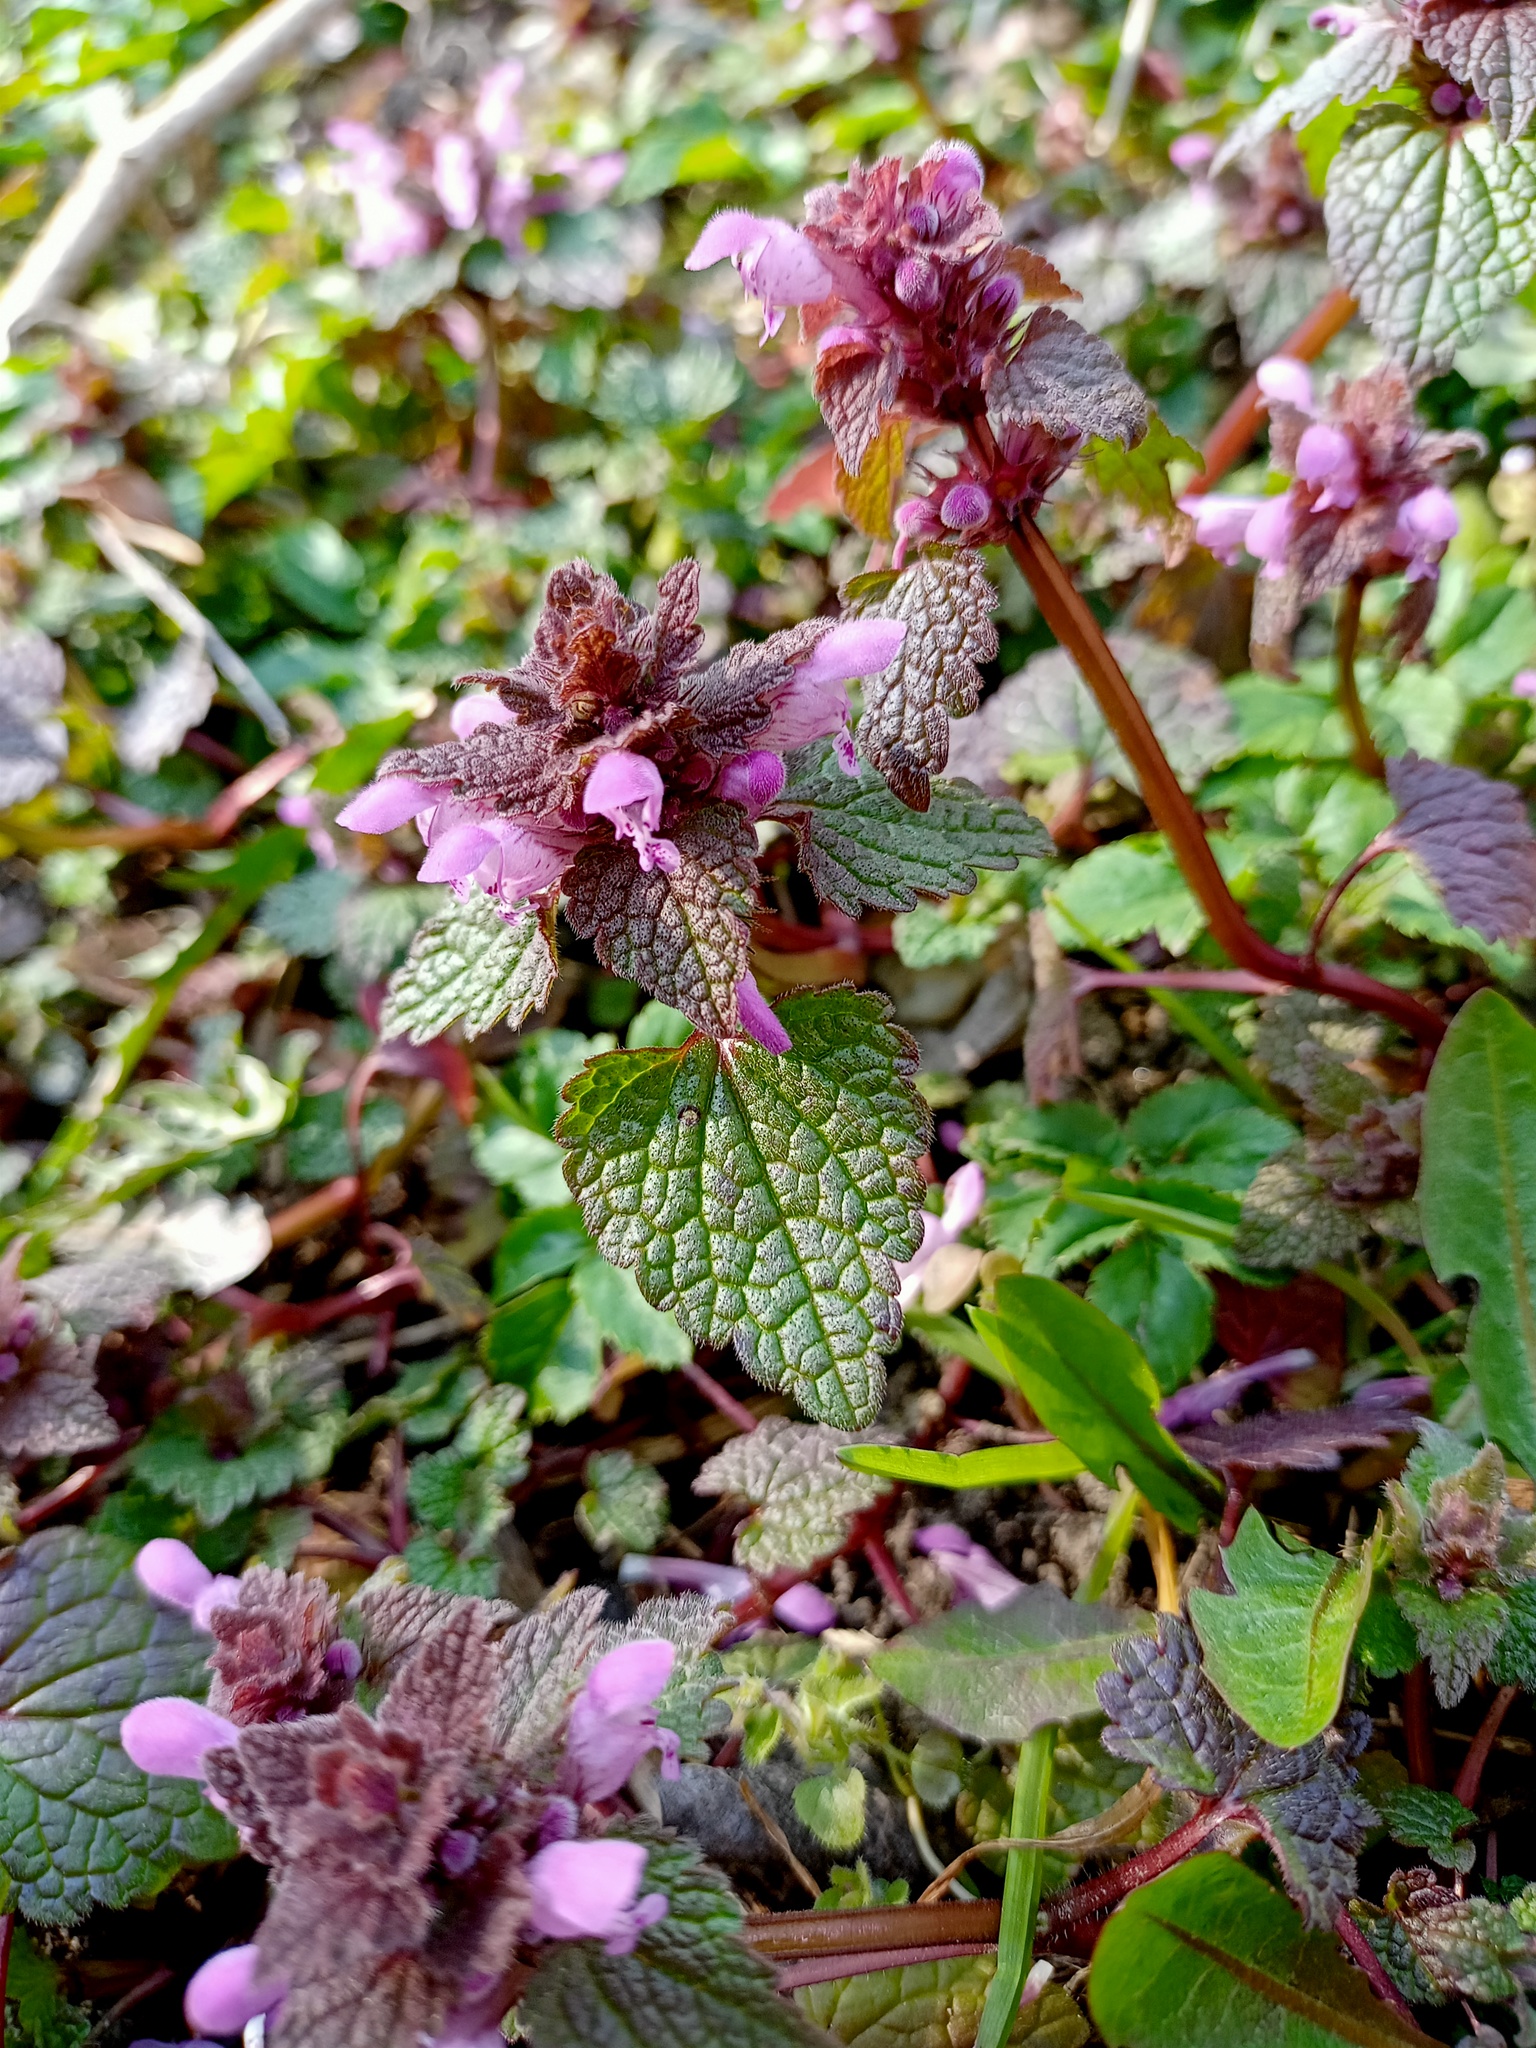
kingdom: Plantae
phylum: Tracheophyta
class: Magnoliopsida
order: Lamiales
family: Lamiaceae
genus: Lamium
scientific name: Lamium purpureum
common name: Red dead-nettle
